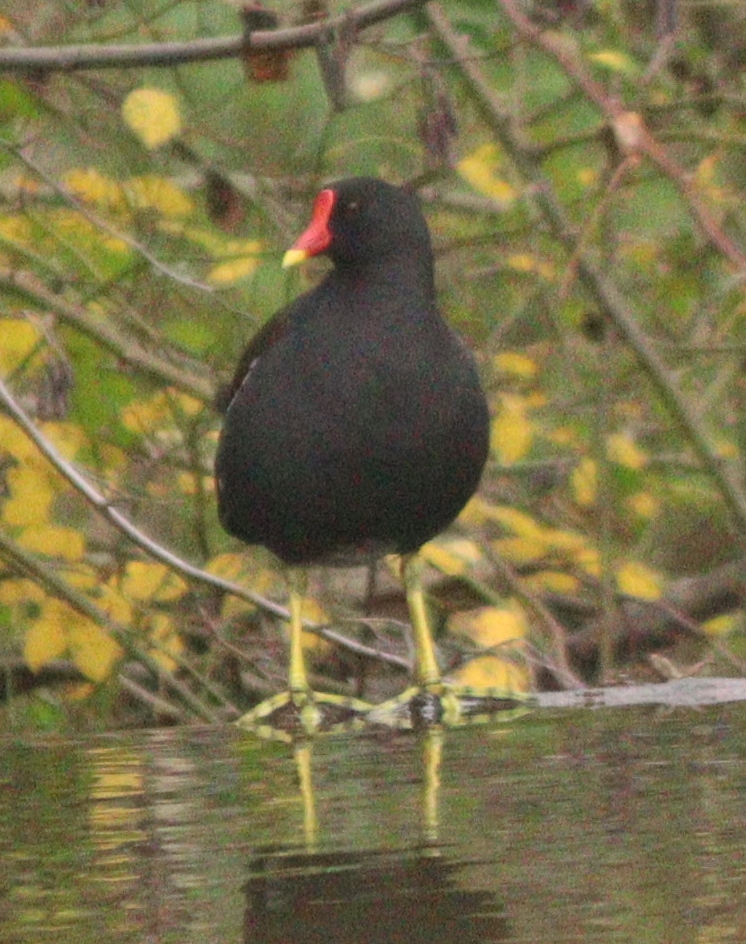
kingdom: Animalia
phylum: Chordata
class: Aves
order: Gruiformes
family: Rallidae
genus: Gallinula
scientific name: Gallinula chloropus
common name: Common moorhen
